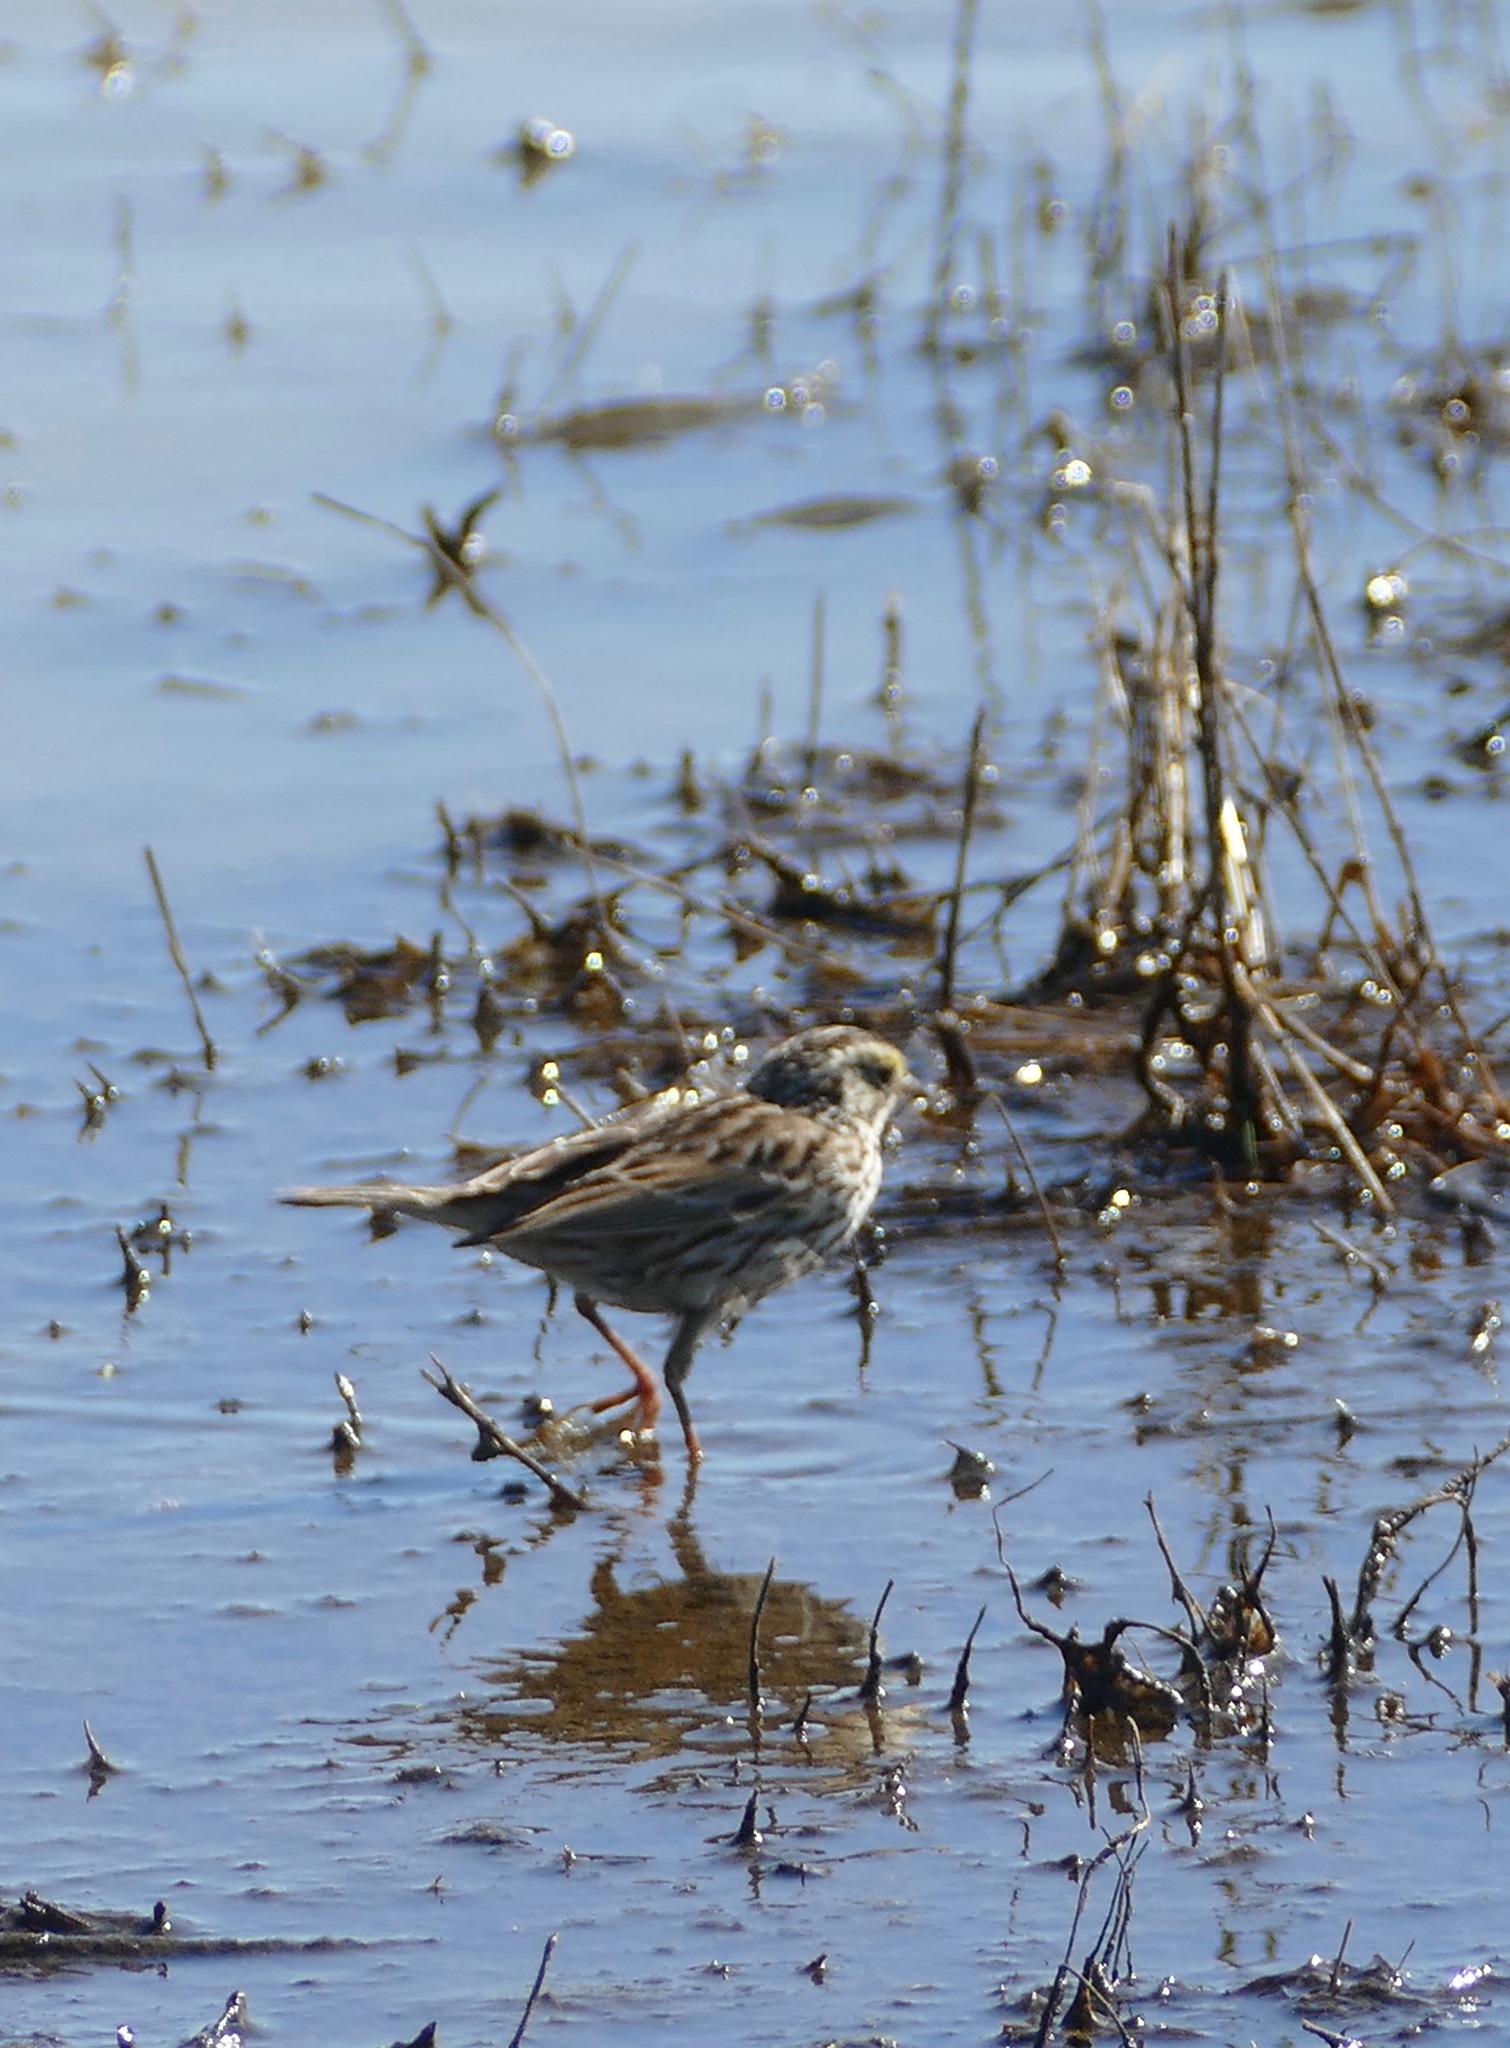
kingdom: Animalia
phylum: Chordata
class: Aves
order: Passeriformes
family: Passerellidae
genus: Passerculus
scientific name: Passerculus sandwichensis
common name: Savannah sparrow
